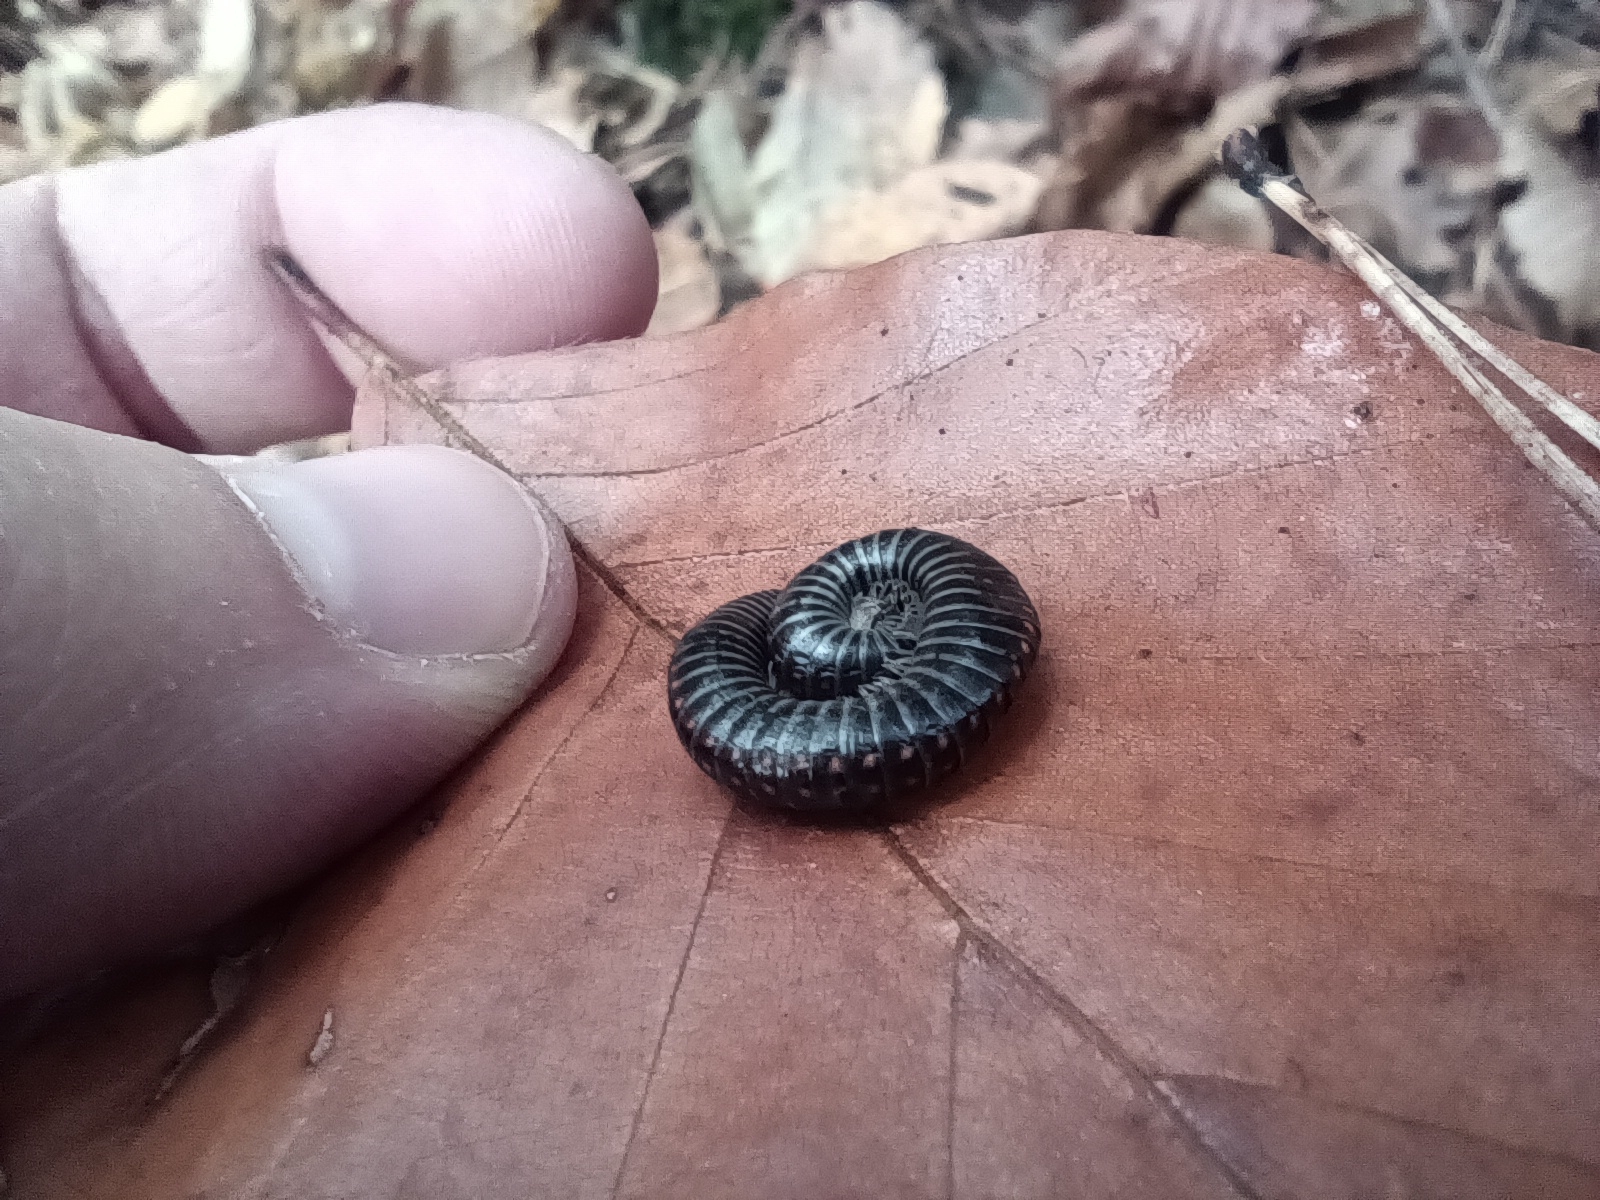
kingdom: Animalia
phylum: Arthropoda
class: Diplopoda
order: Julida
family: Julidae
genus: Ommatoiulus
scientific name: Ommatoiulus sabulosus
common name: Striped millipede
